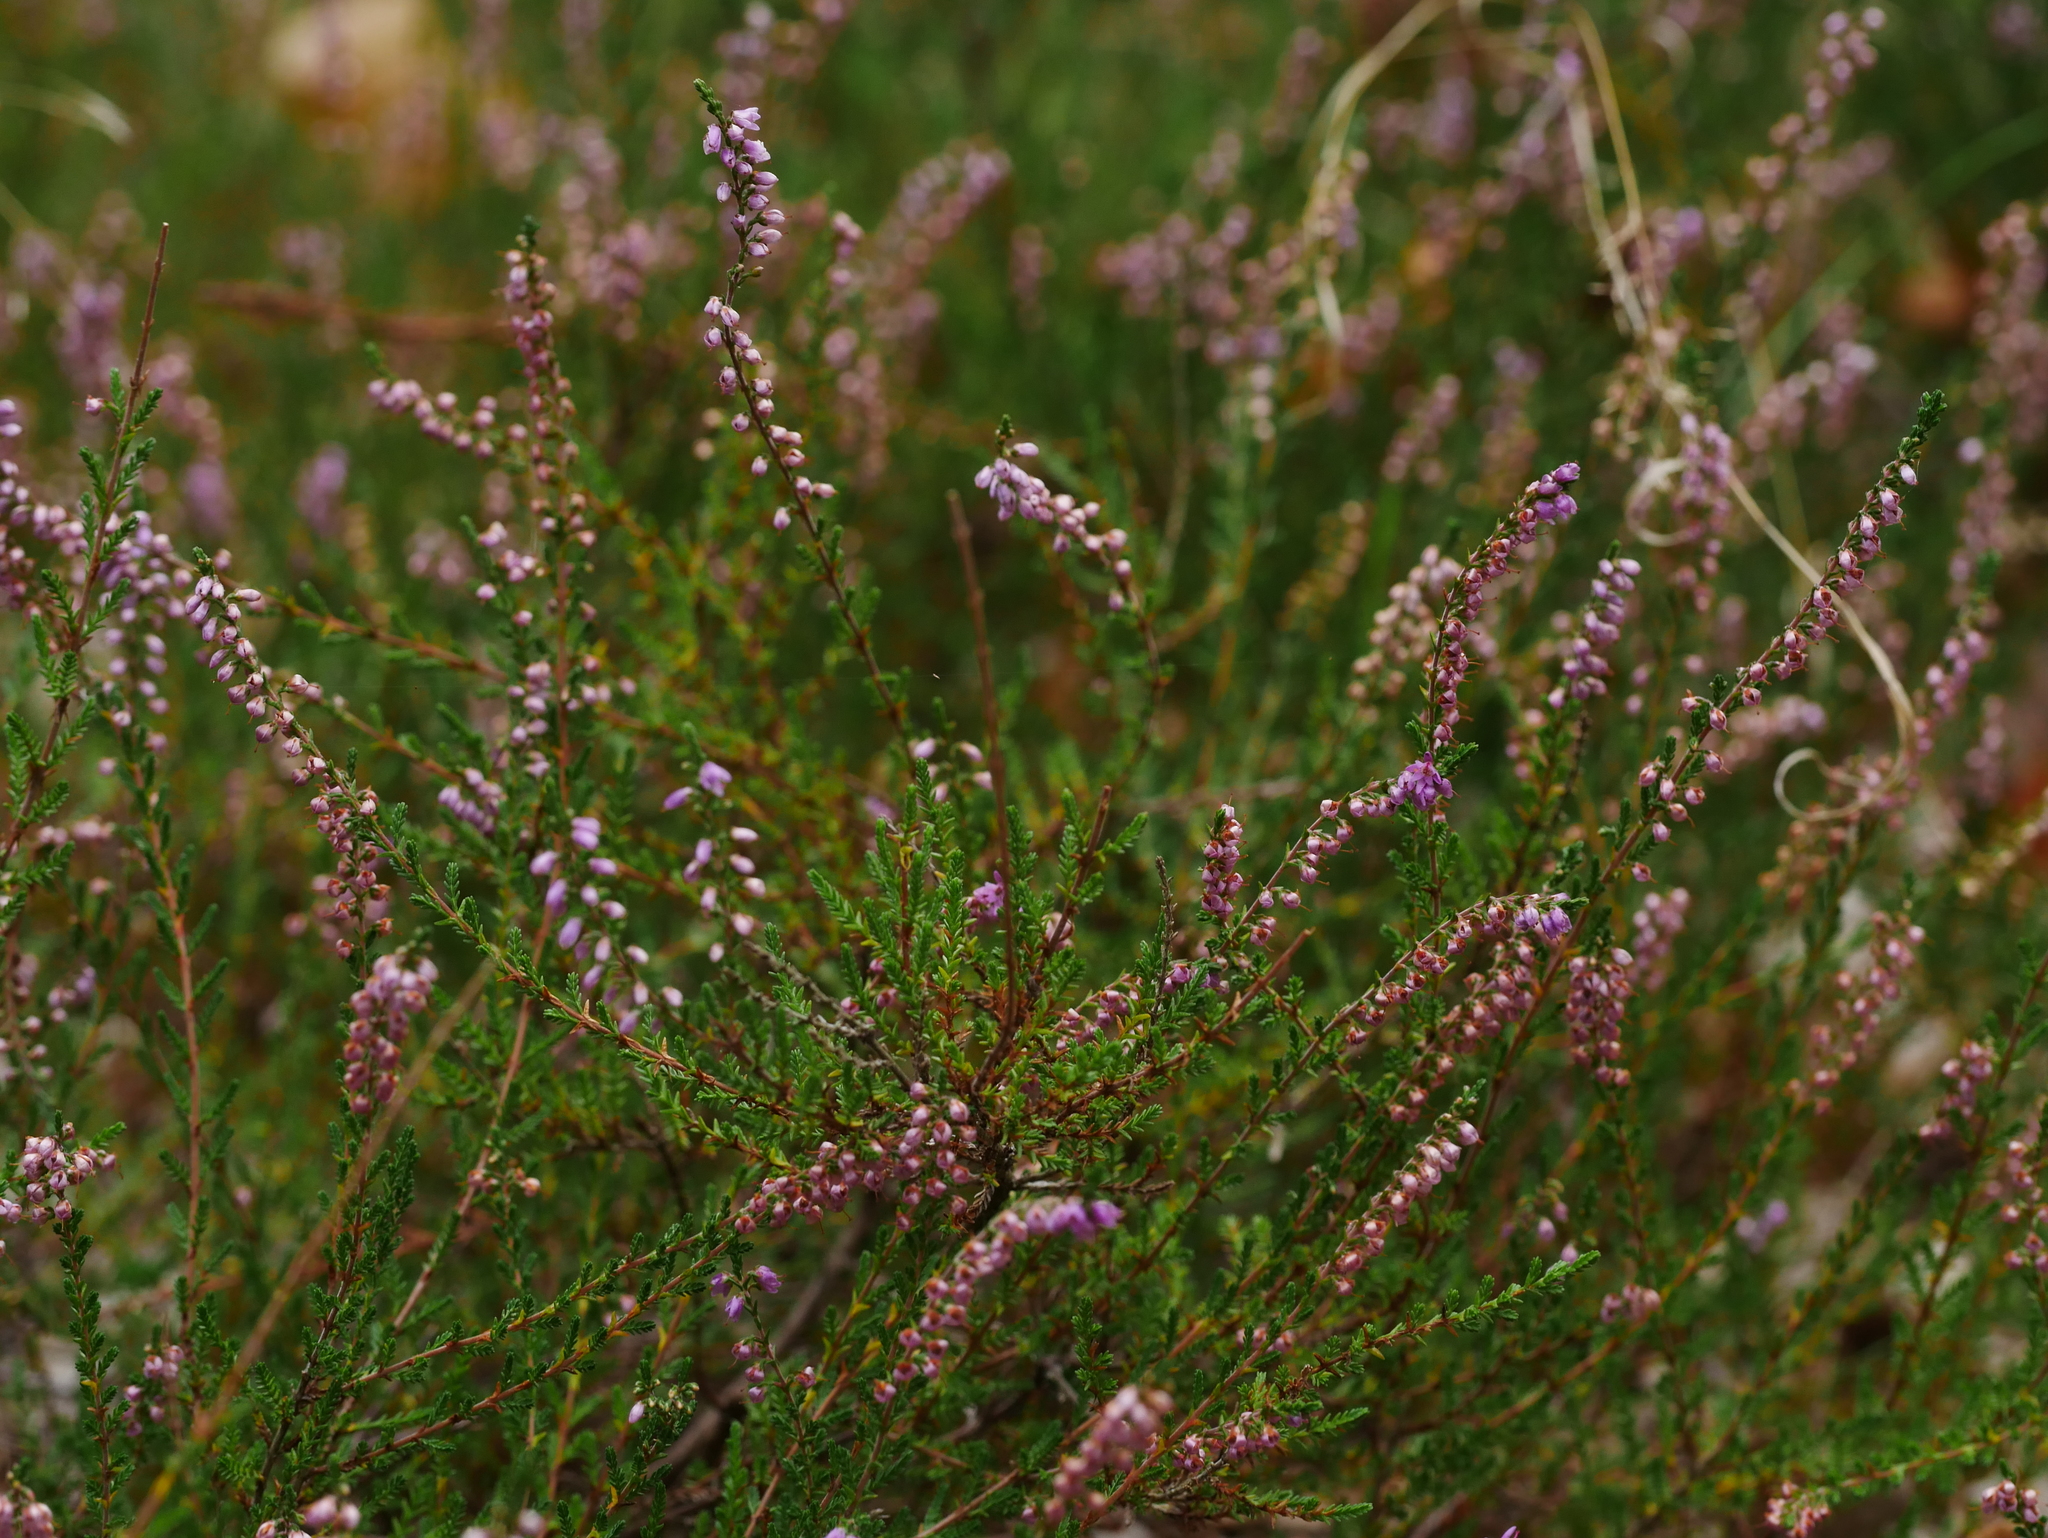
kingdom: Plantae
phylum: Tracheophyta
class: Magnoliopsida
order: Ericales
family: Ericaceae
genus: Calluna
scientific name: Calluna vulgaris
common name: Heather
